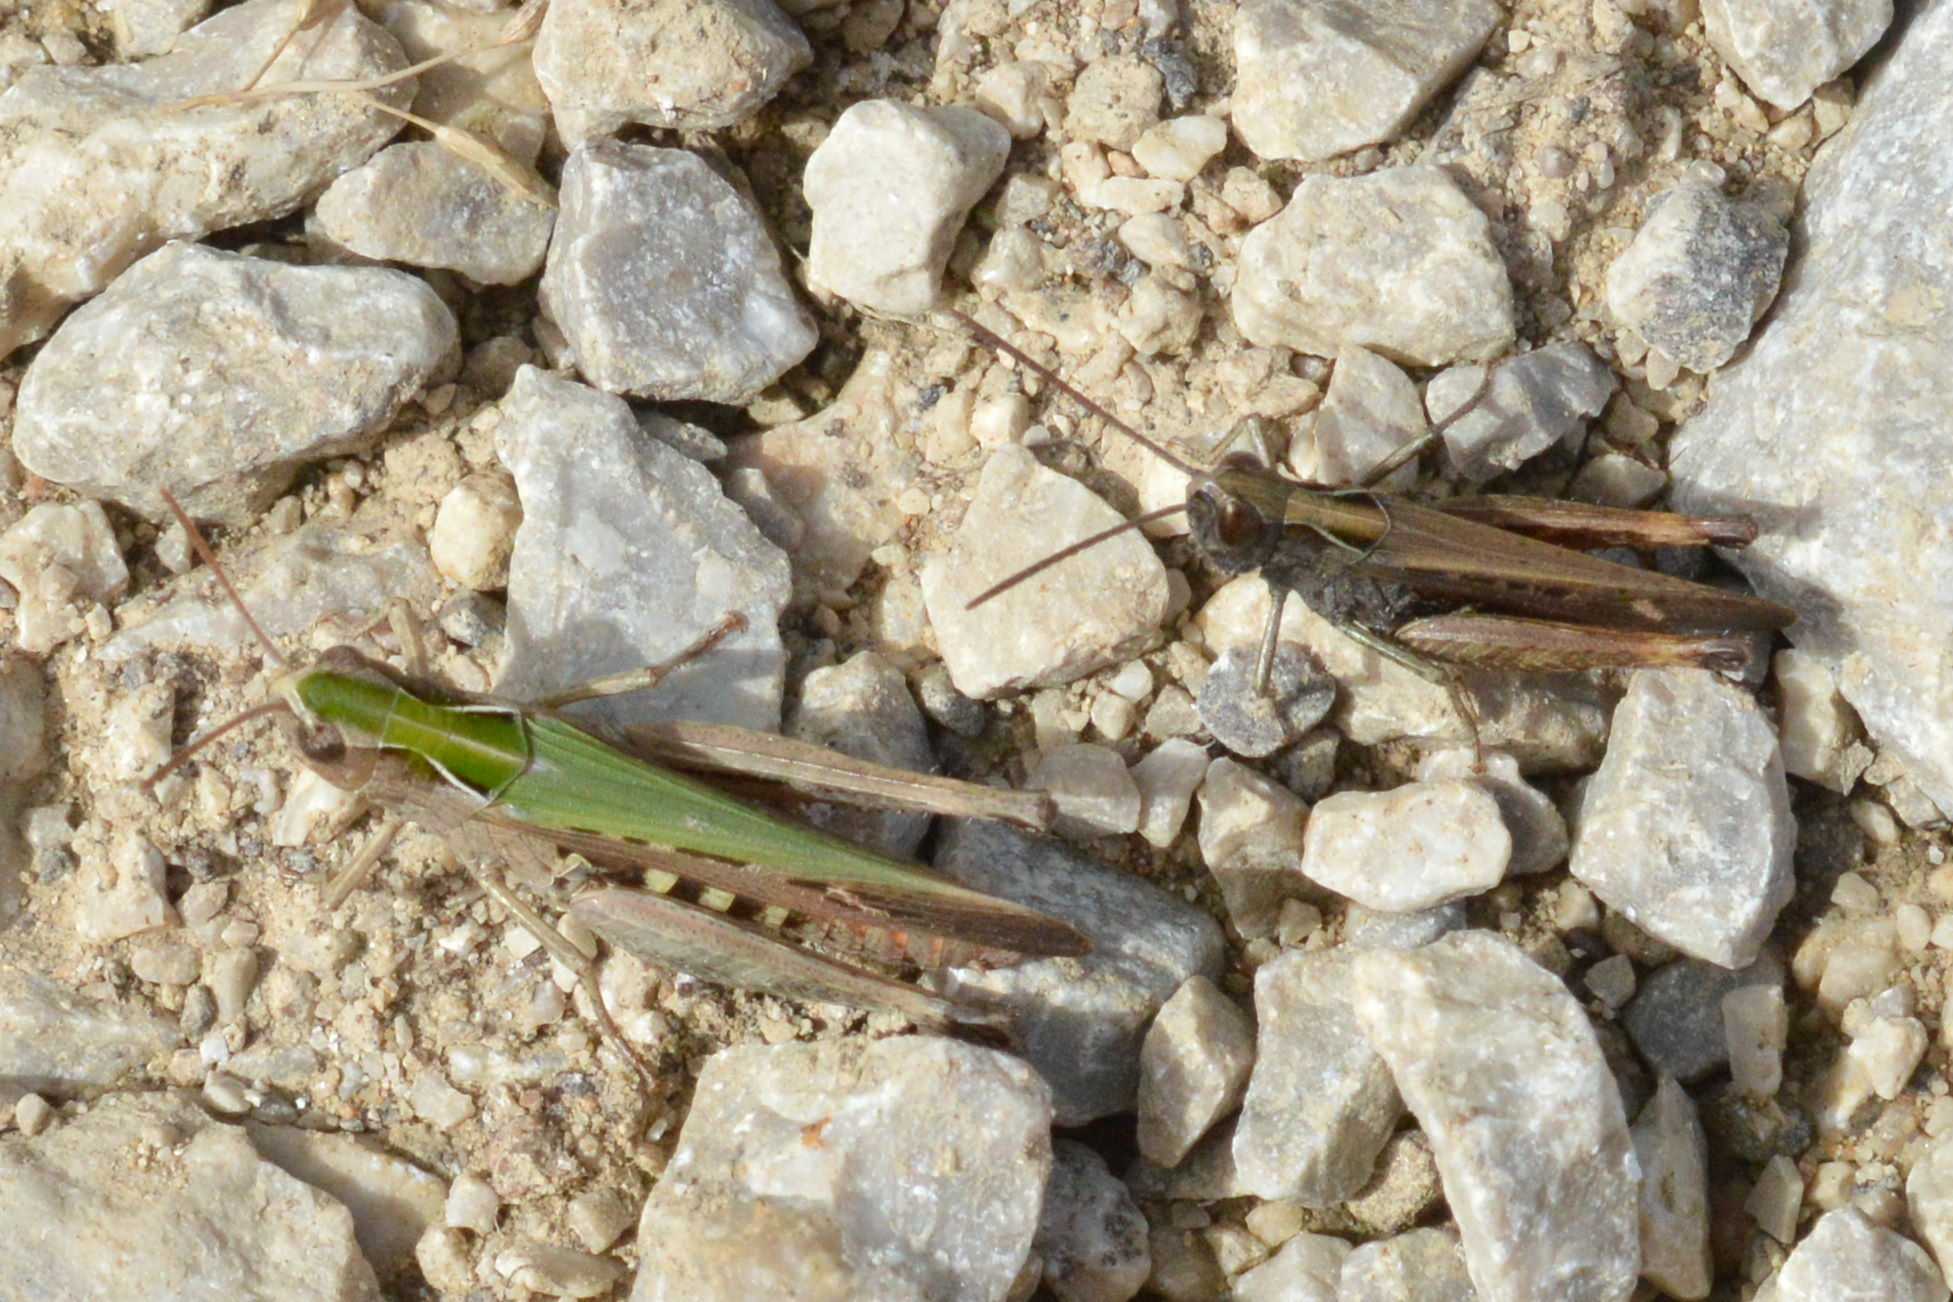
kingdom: Animalia
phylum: Arthropoda
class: Insecta
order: Orthoptera
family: Acrididae
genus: Omocestus
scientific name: Omocestus rufipes
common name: Woodland grasshopper
